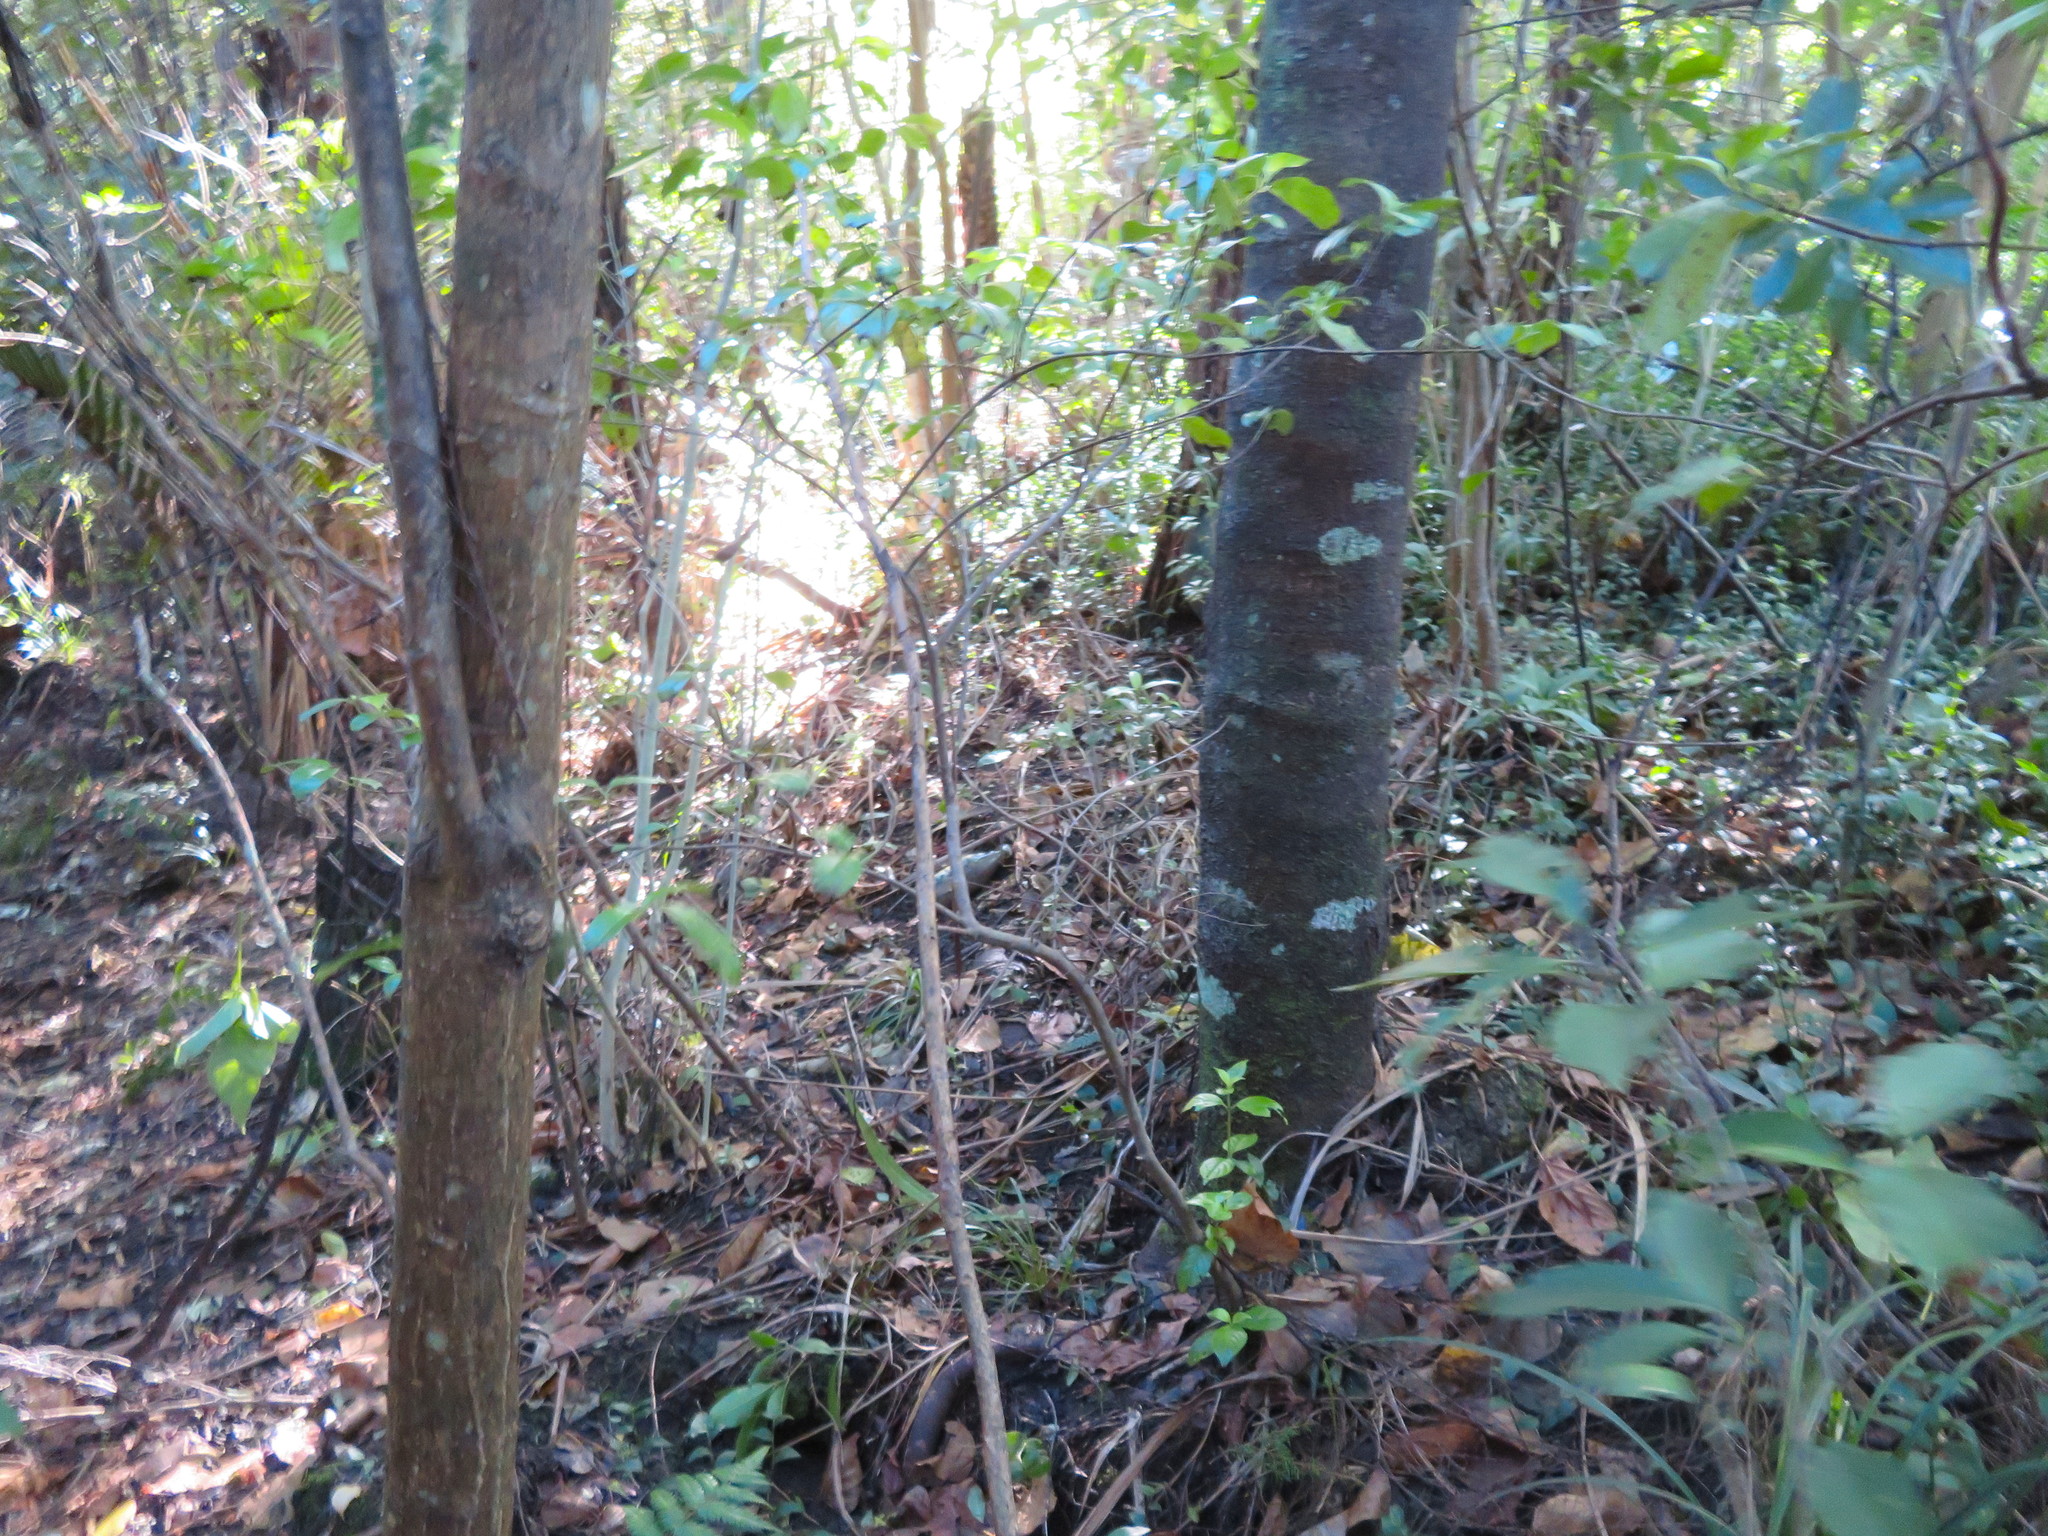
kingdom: Plantae
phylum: Tracheophyta
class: Magnoliopsida
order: Fabales
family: Fabaceae
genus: Erythrina
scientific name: Erythrina sykesii
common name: Coraltree
